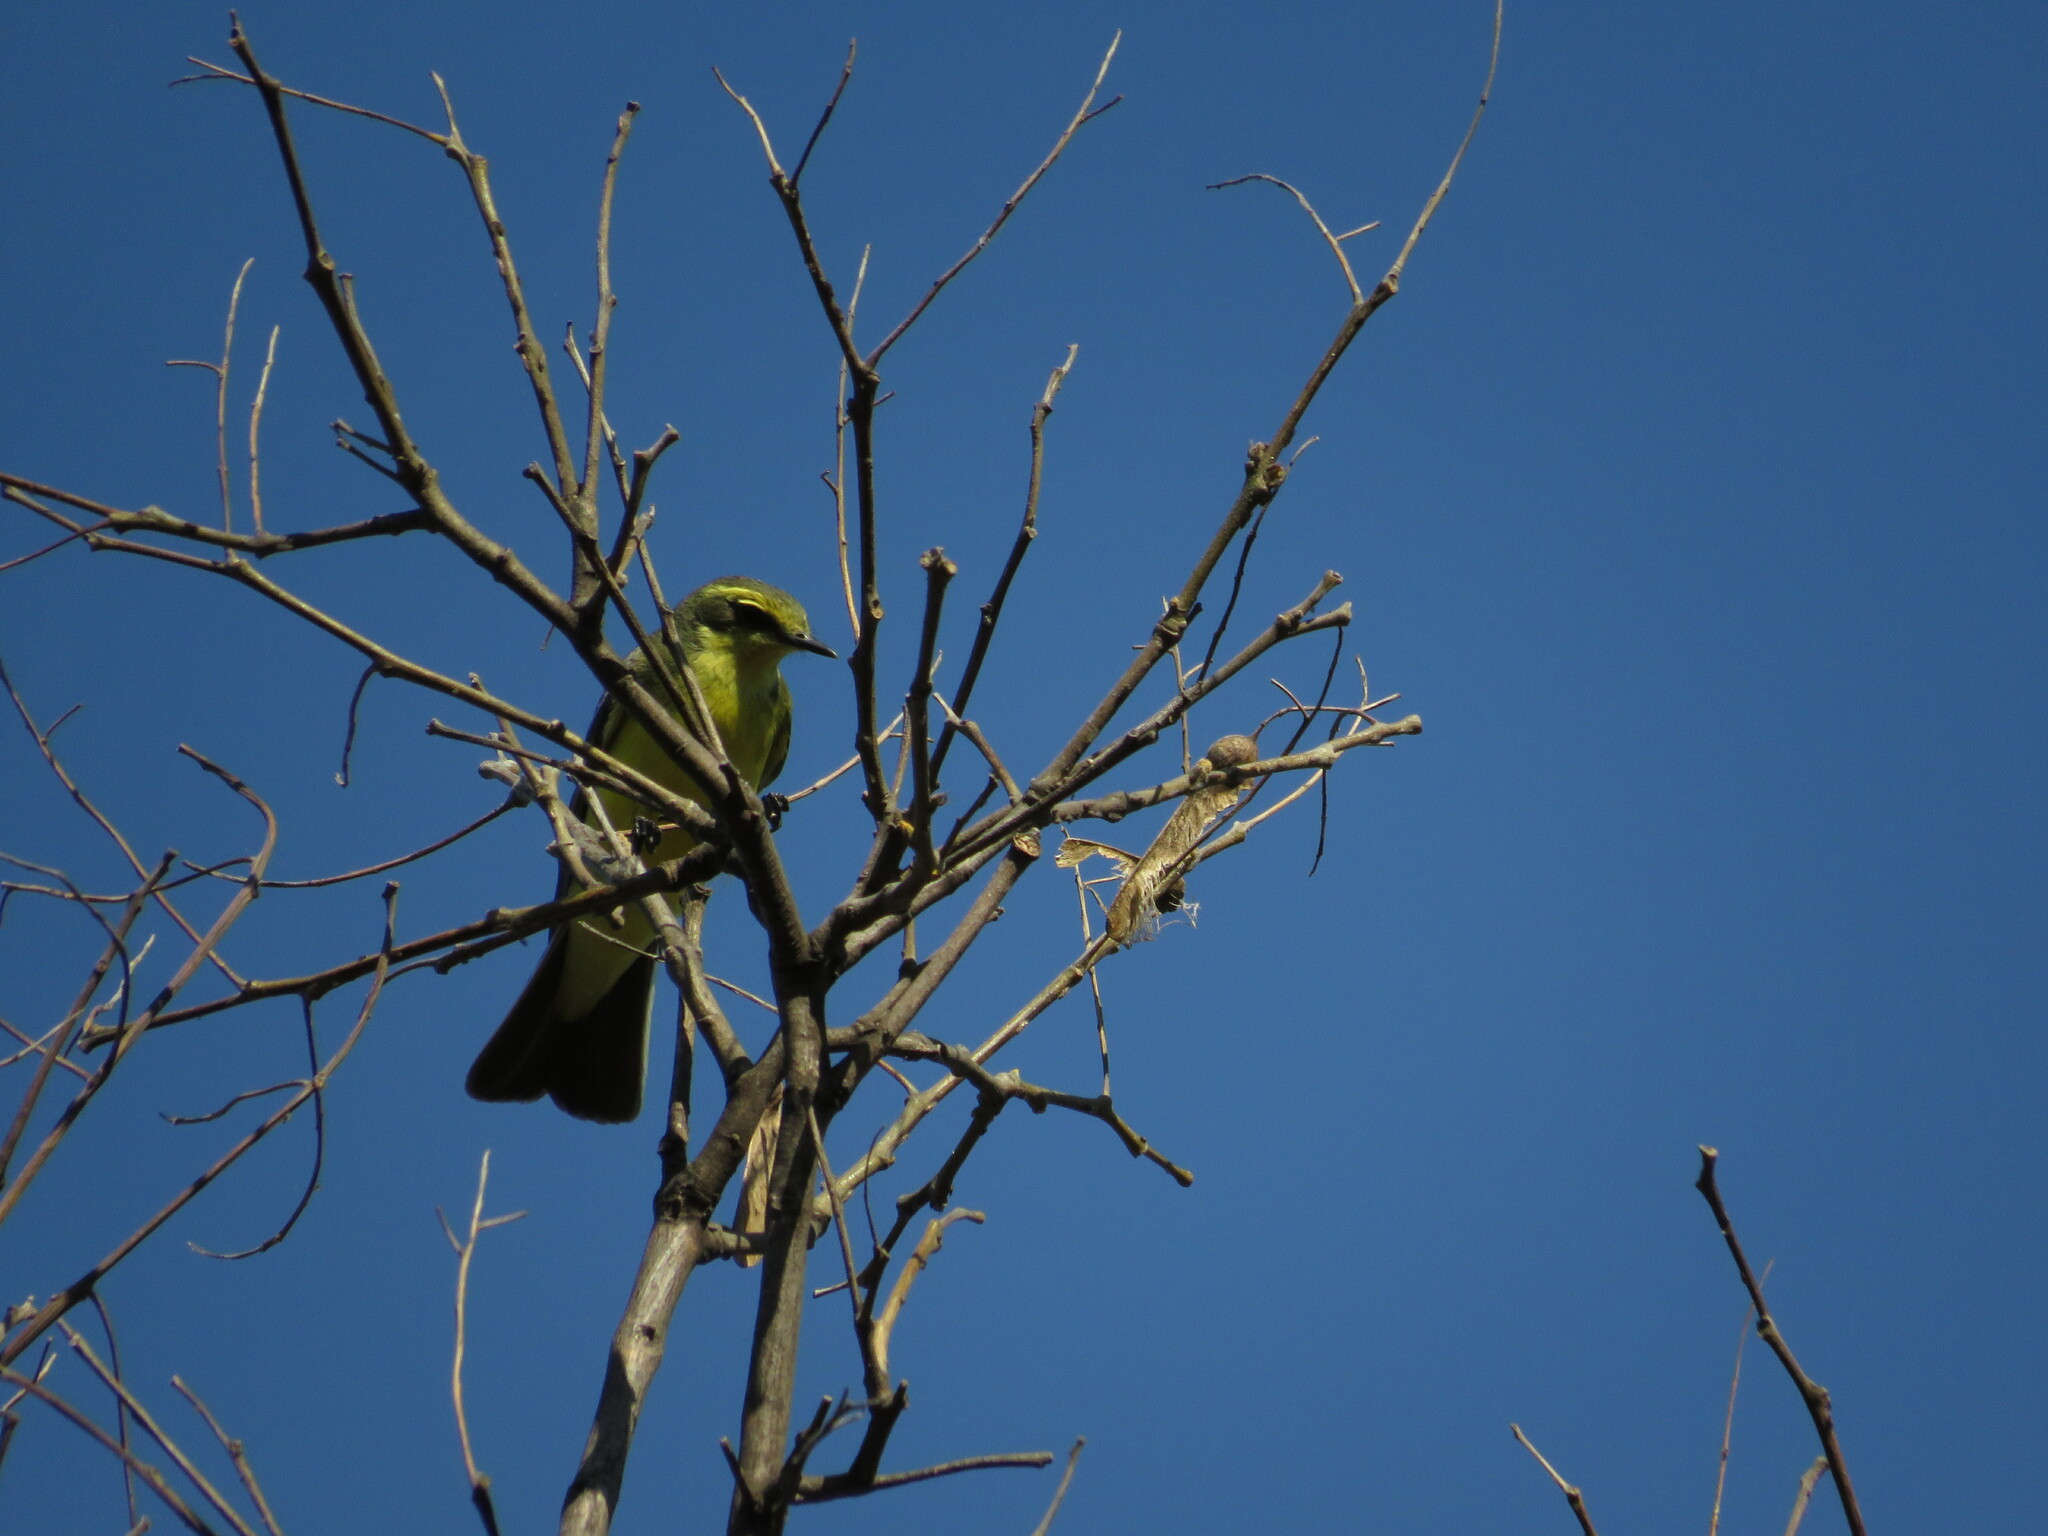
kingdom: Animalia
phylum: Chordata
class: Aves
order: Passeriformes
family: Tyrannidae
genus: Satrapa
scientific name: Satrapa icterophrys
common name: Yellow-browed tyrant
